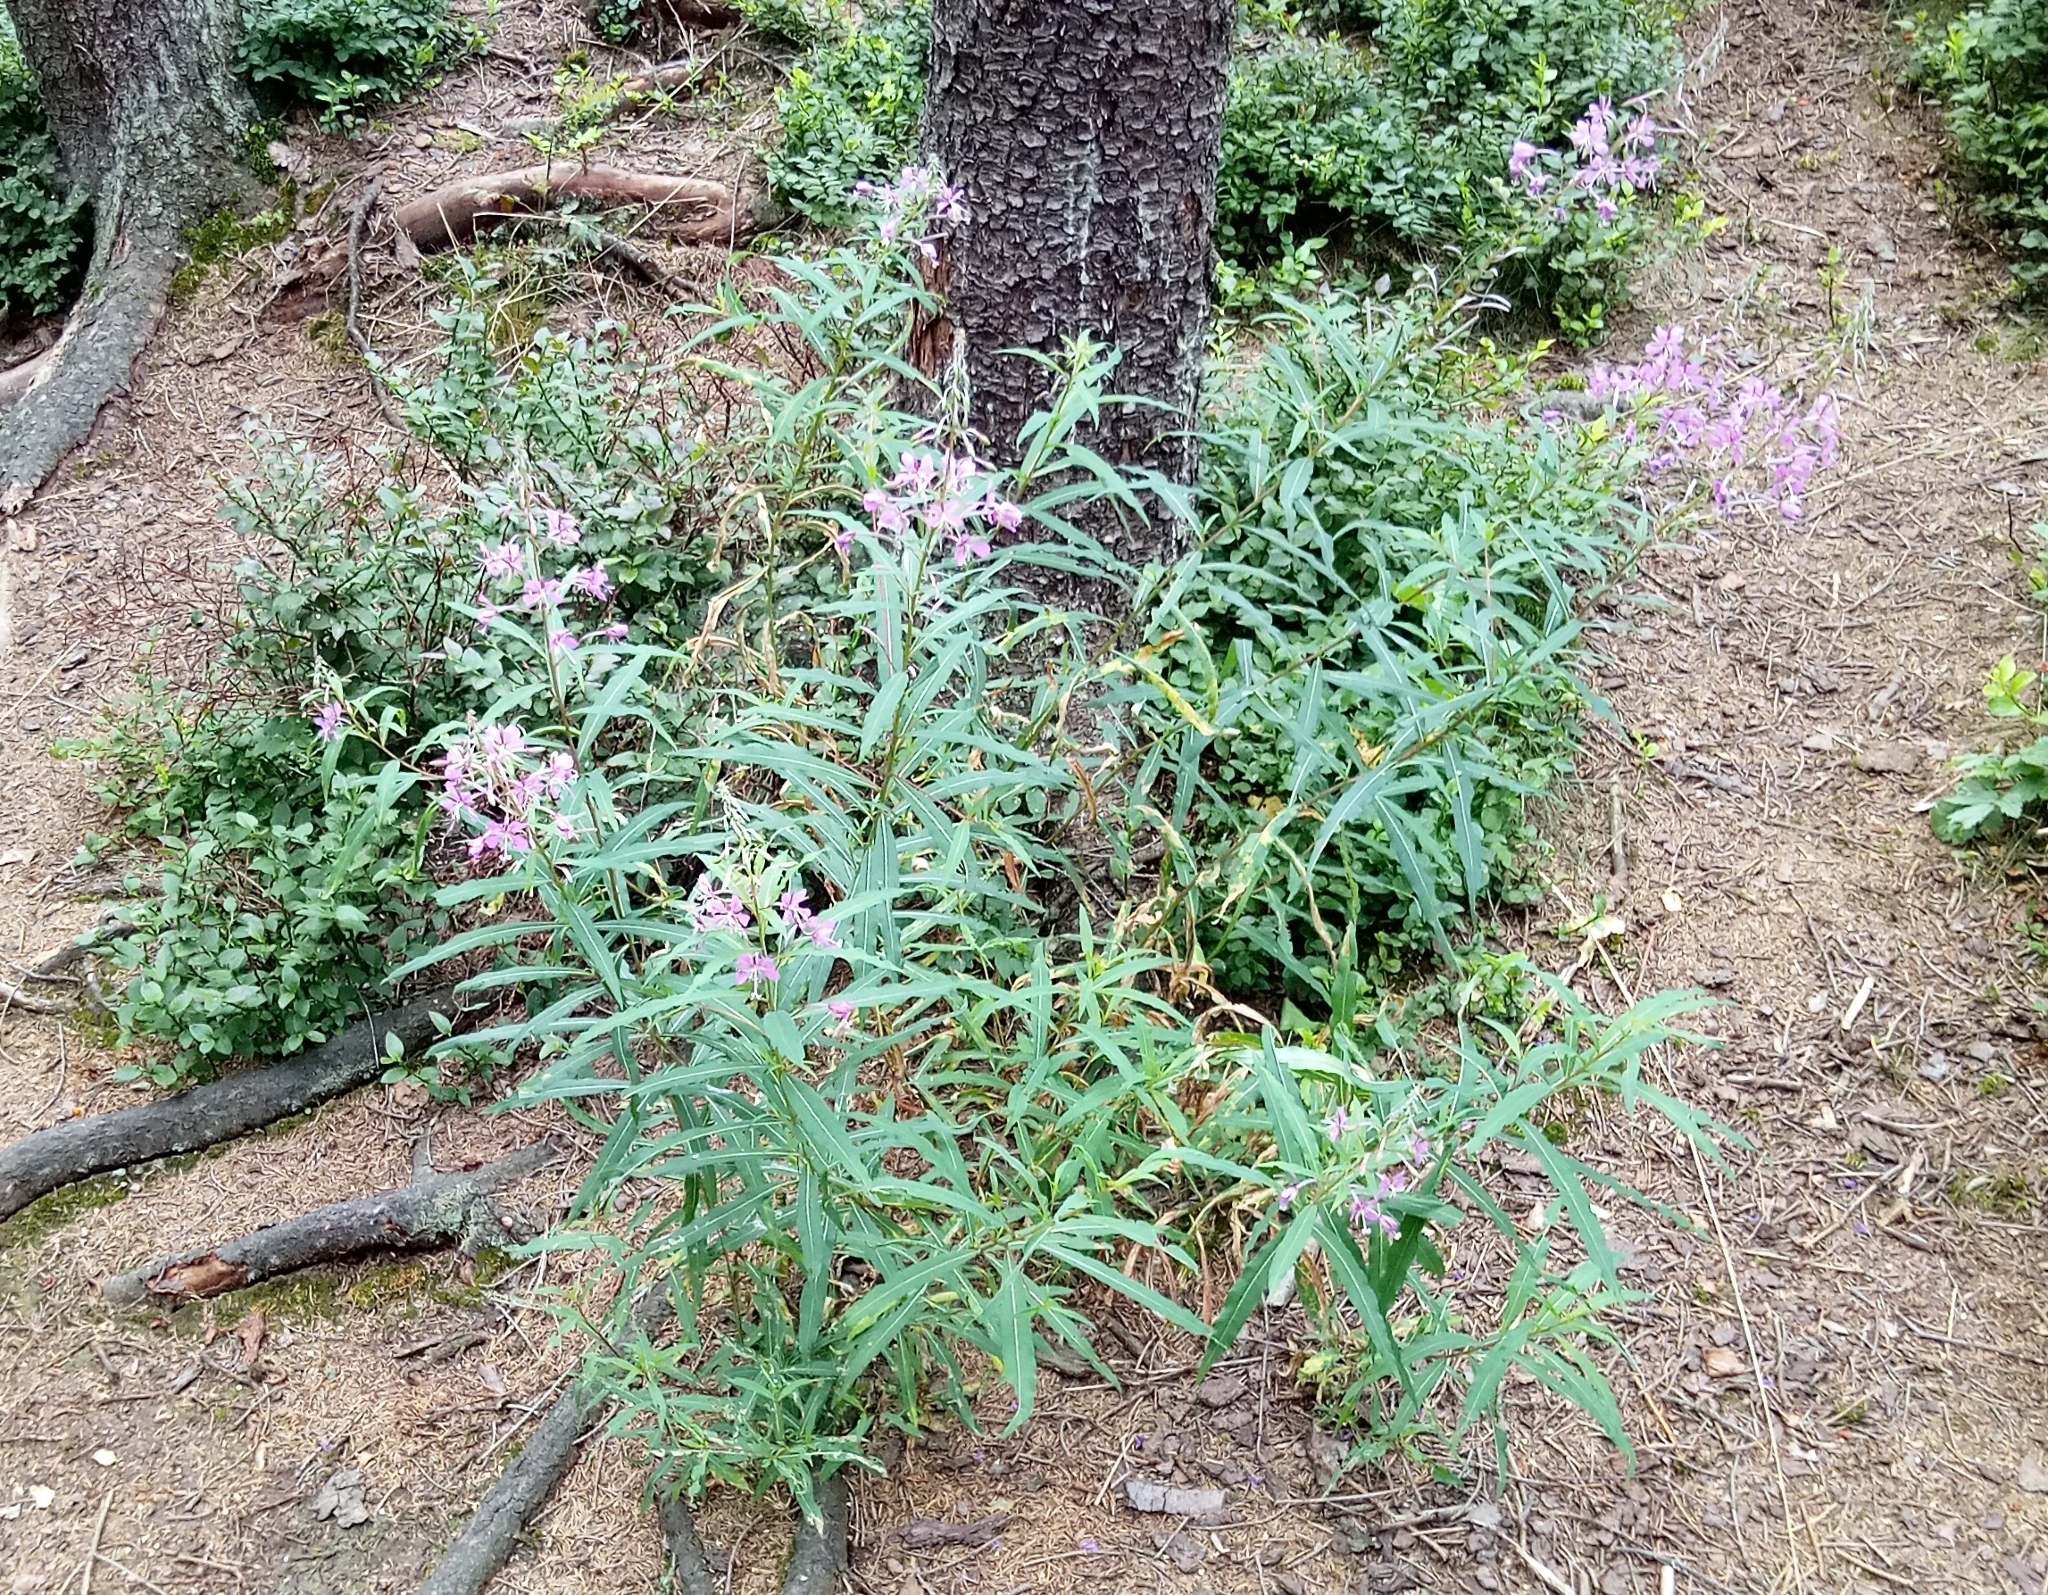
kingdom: Plantae
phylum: Tracheophyta
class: Magnoliopsida
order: Myrtales
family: Onagraceae
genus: Chamaenerion
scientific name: Chamaenerion angustifolium
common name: Fireweed
